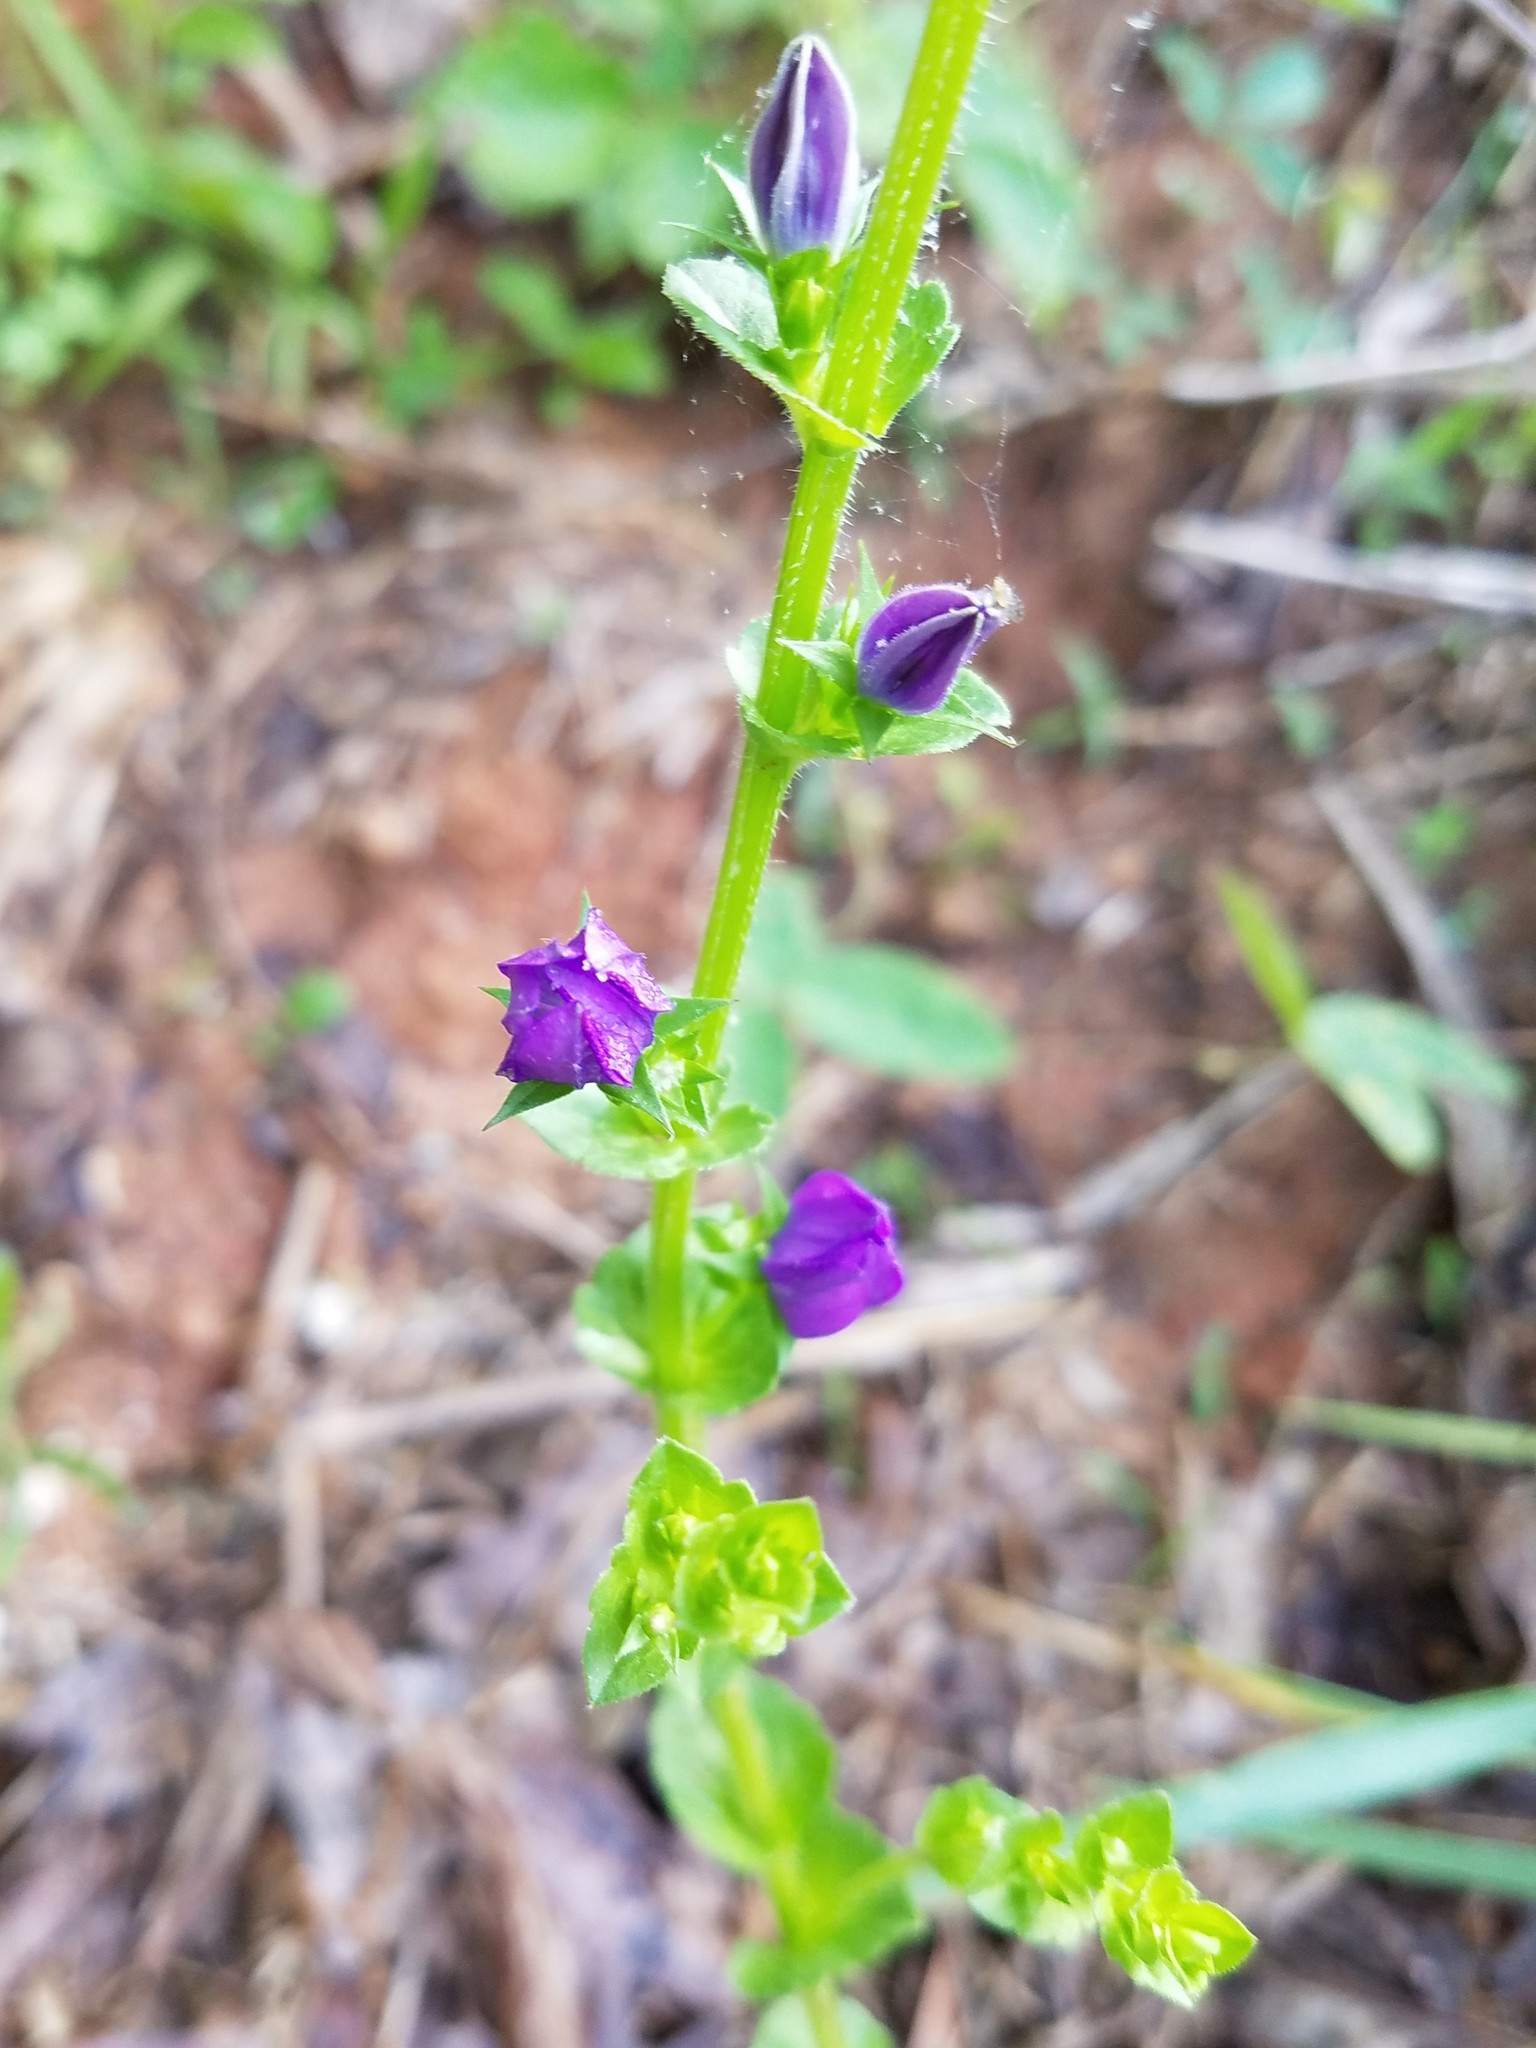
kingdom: Plantae
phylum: Tracheophyta
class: Magnoliopsida
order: Asterales
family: Campanulaceae
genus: Triodanis
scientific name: Triodanis perfoliata
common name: Clasping venus' looking-glass
